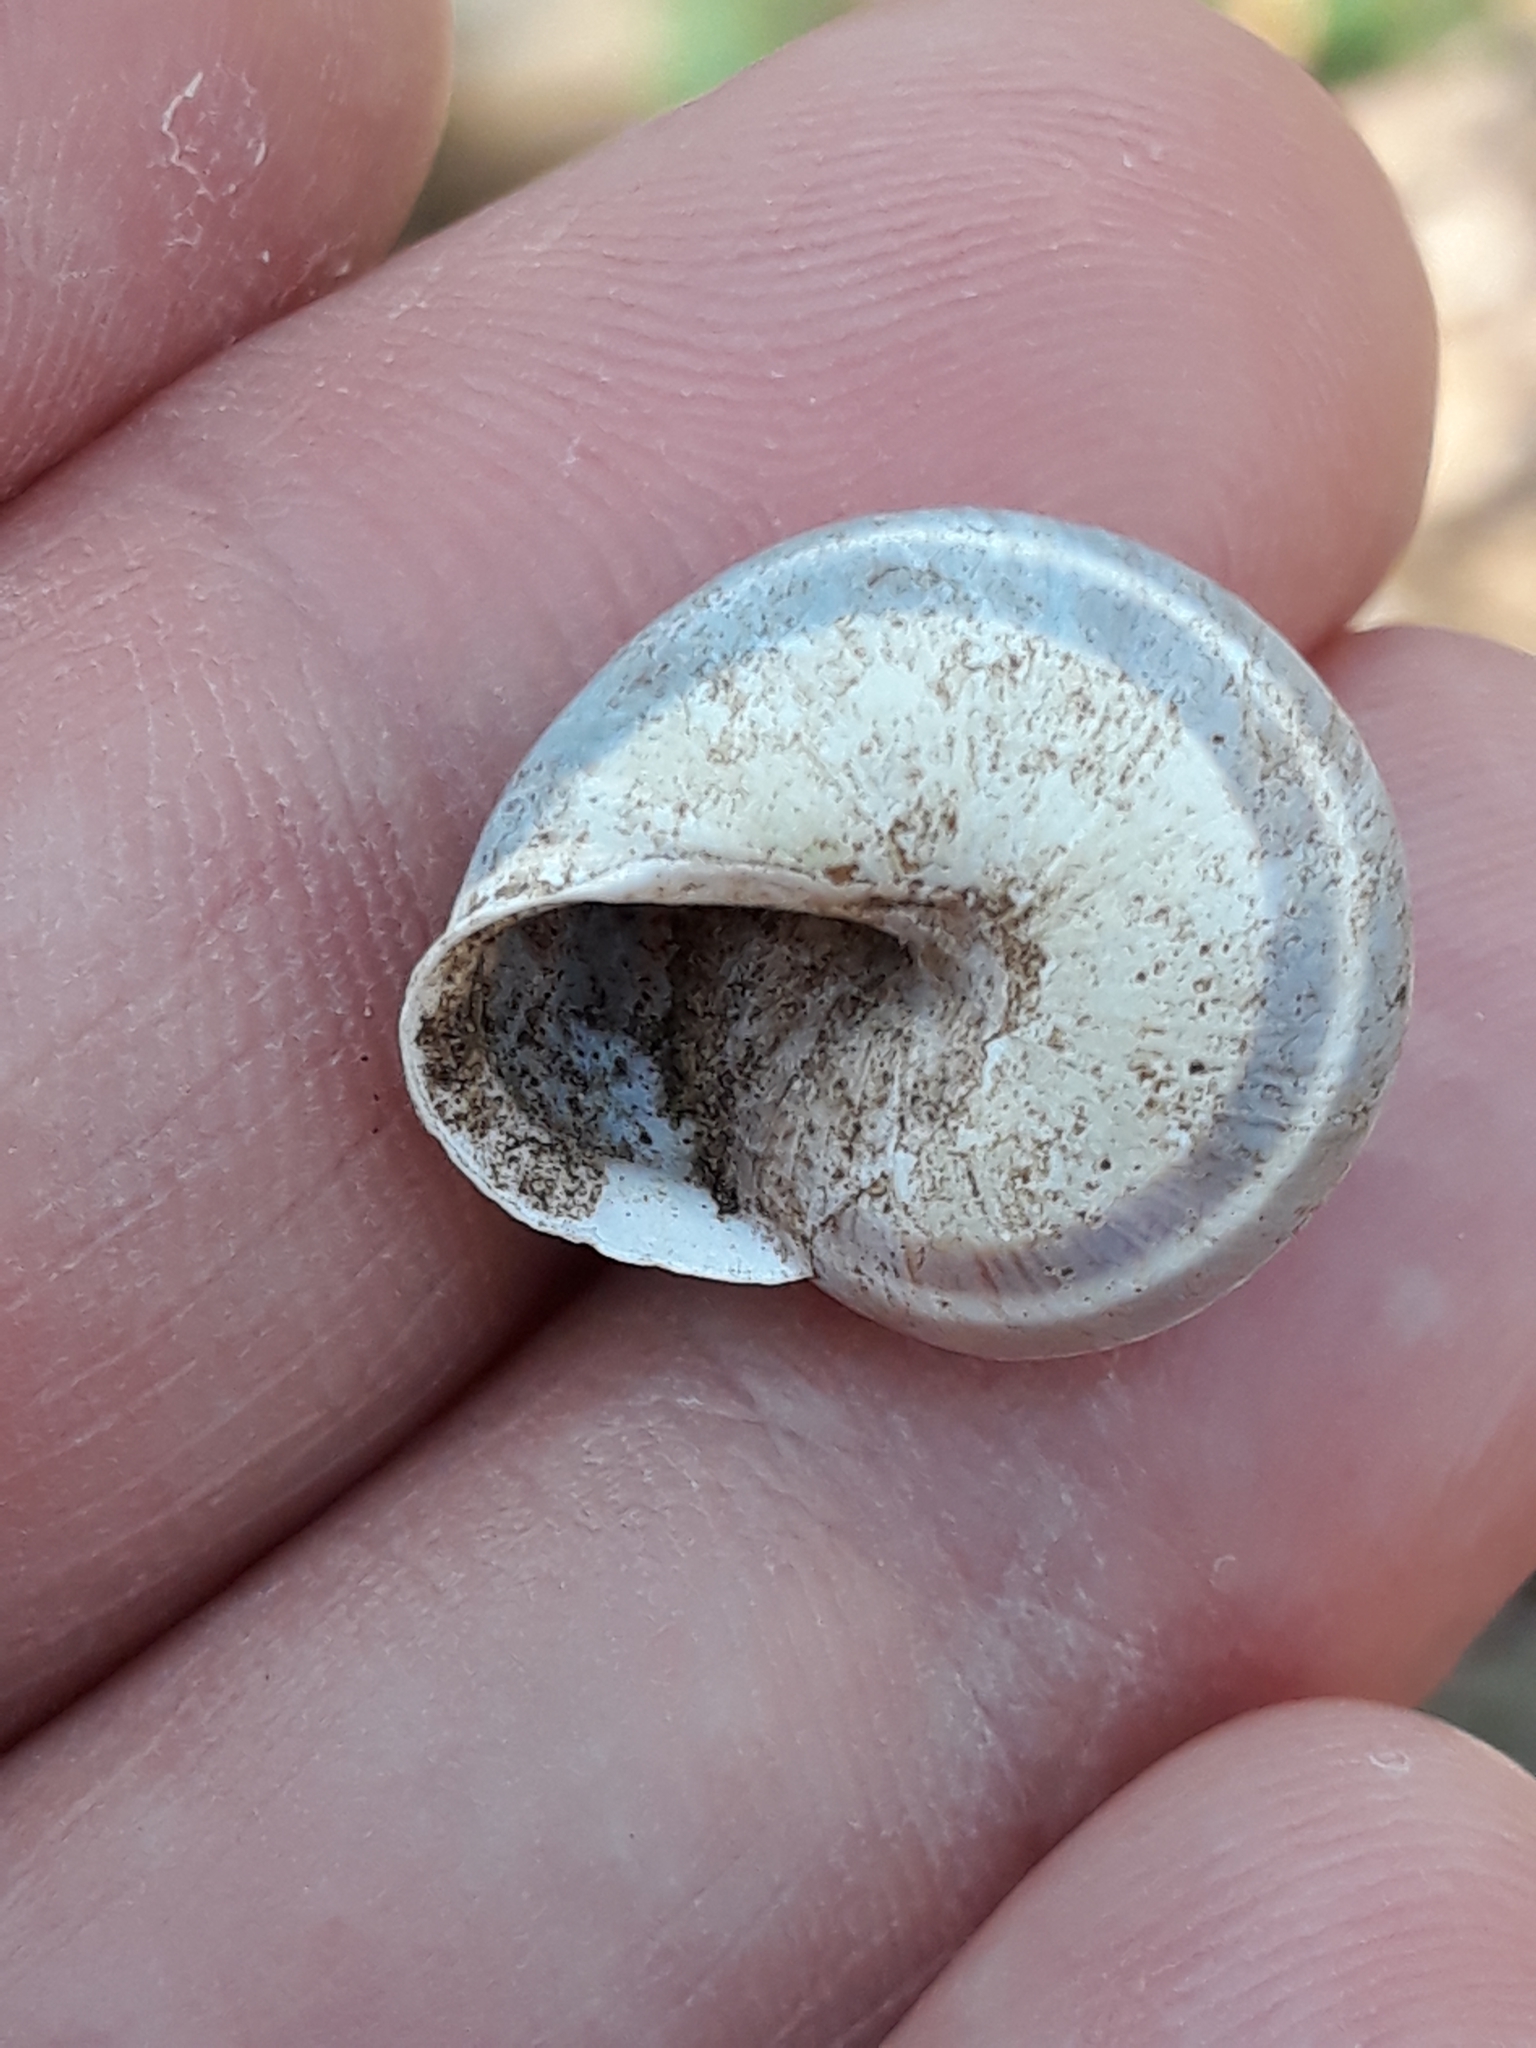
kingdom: Animalia
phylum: Mollusca
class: Gastropoda
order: Stylommatophora
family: Helicidae
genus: Cepaea
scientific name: Cepaea hortensis
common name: White-lip gardensnail
